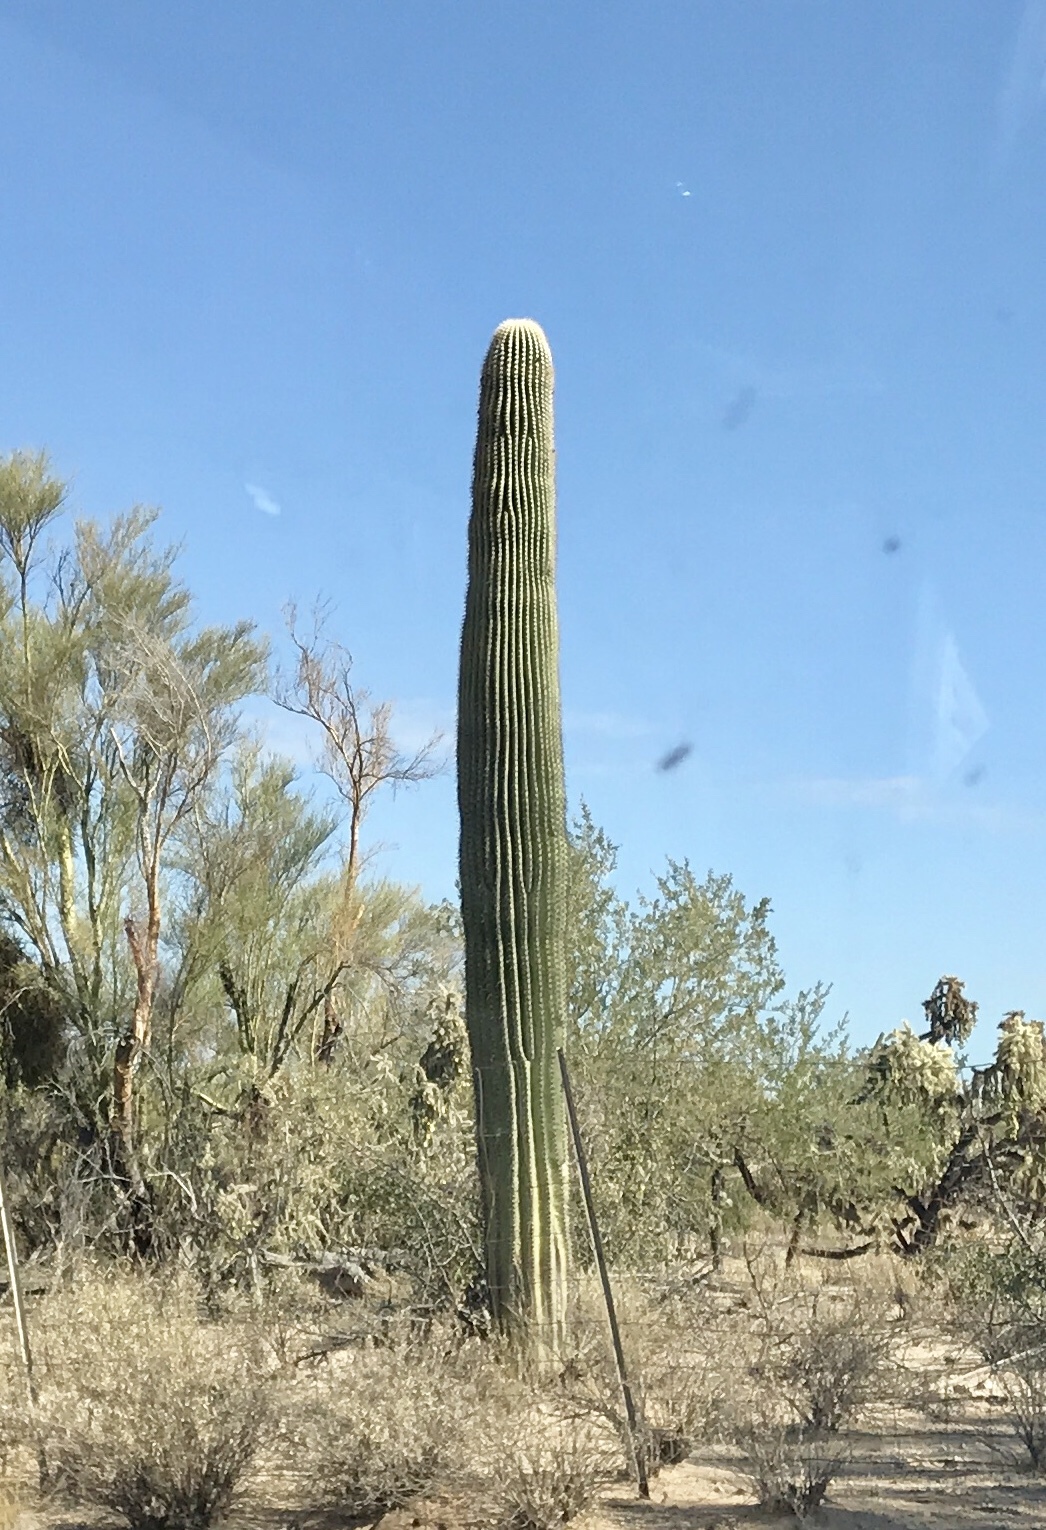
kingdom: Plantae
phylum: Tracheophyta
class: Magnoliopsida
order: Caryophyllales
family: Cactaceae
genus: Carnegiea
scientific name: Carnegiea gigantea
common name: Saguaro
